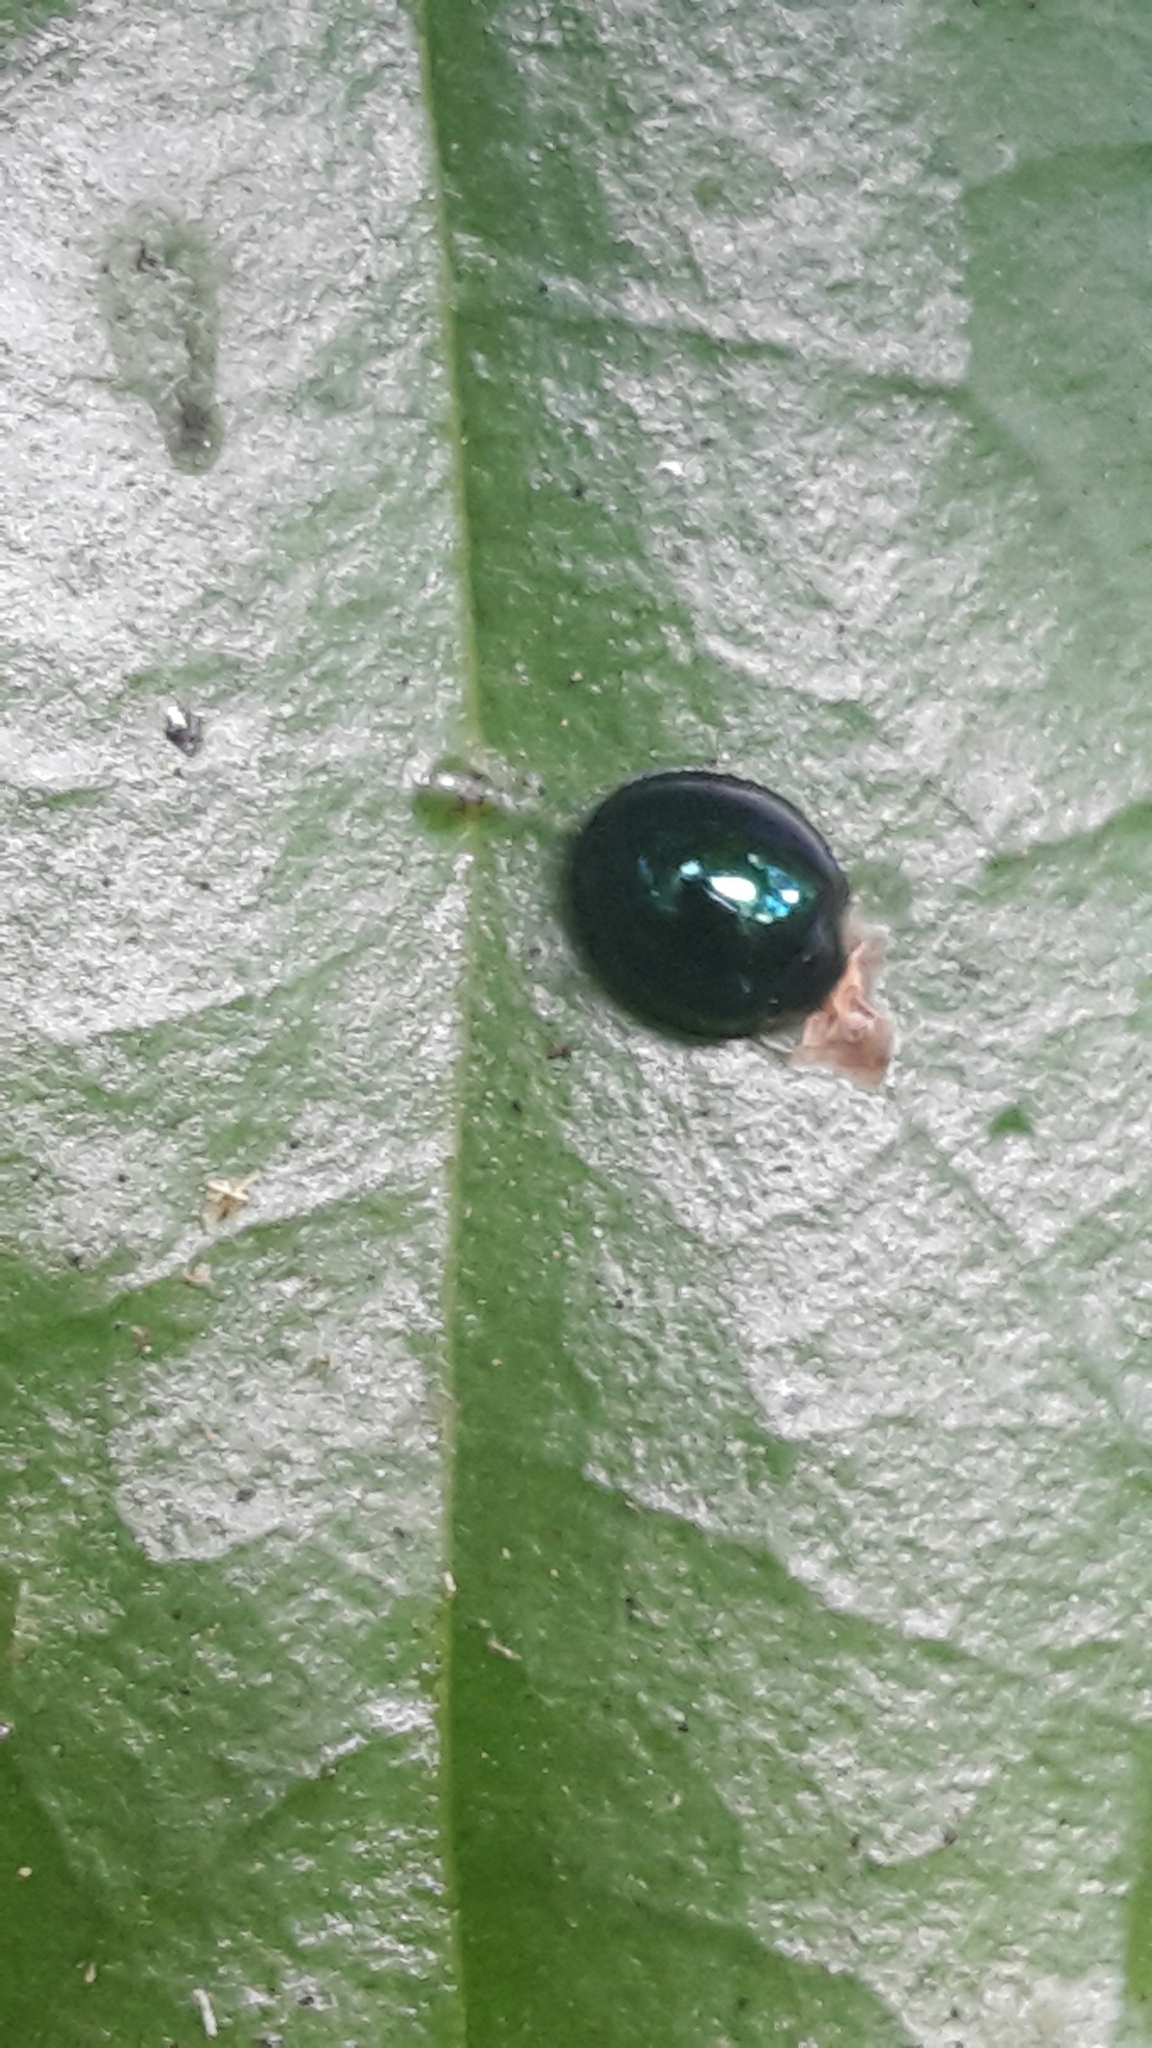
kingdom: Animalia
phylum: Arthropoda
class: Insecta
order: Coleoptera
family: Coccinellidae
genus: Halmus
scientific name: Halmus chalybeus
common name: Steel blue ladybird beetle
